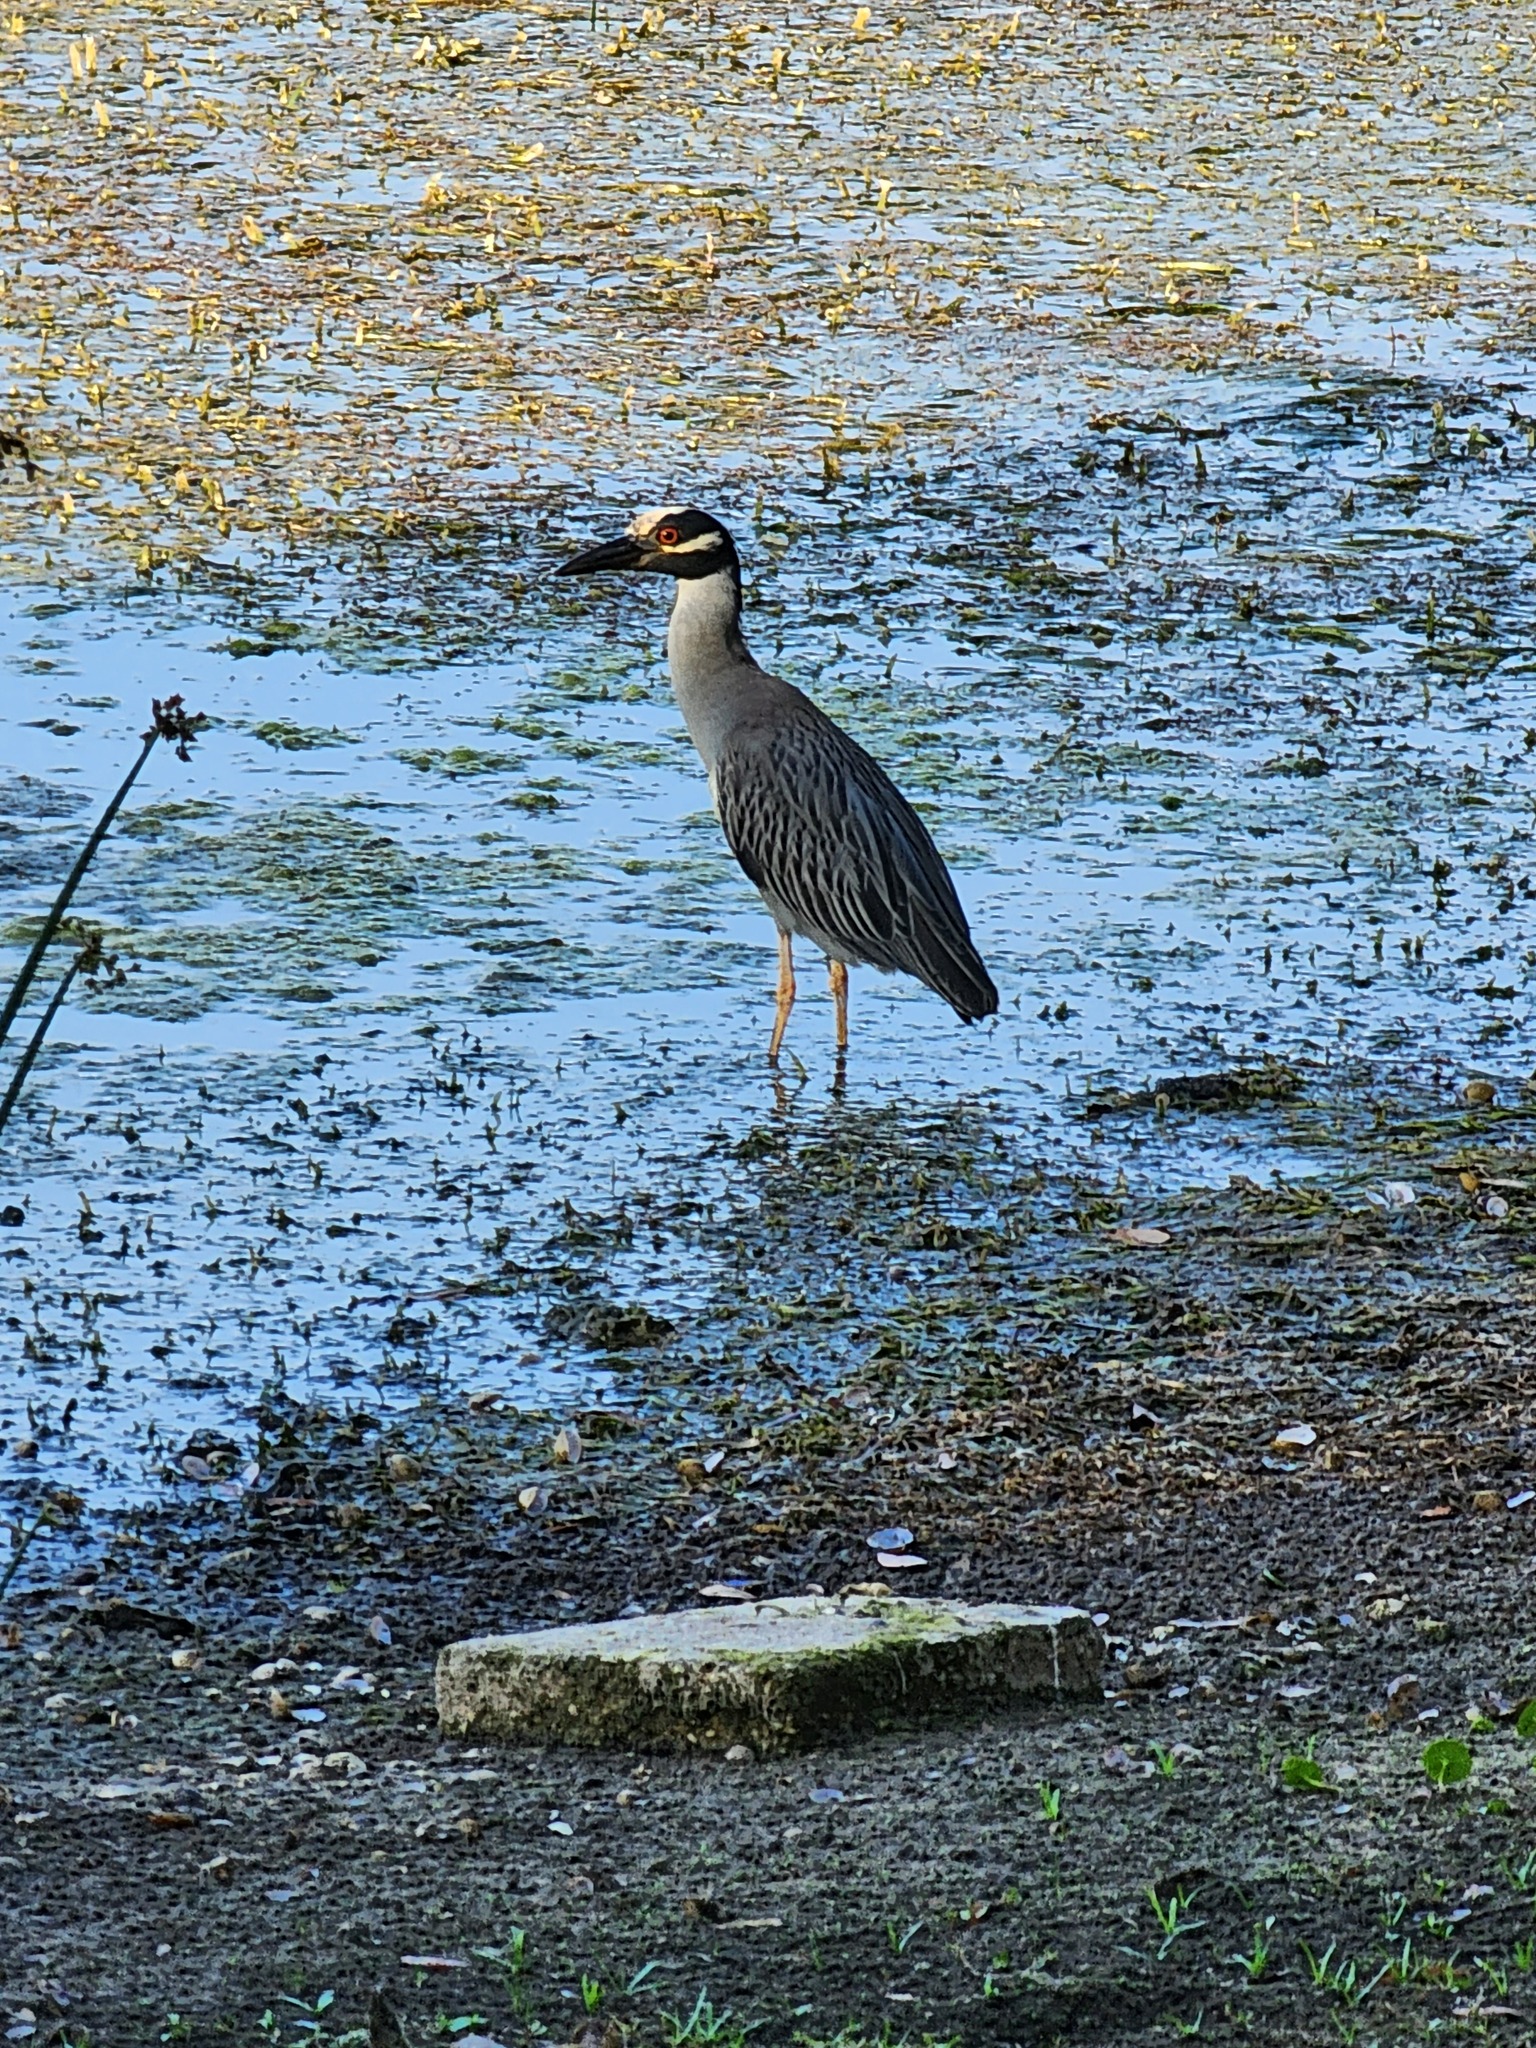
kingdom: Animalia
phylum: Chordata
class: Aves
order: Pelecaniformes
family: Ardeidae
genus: Nyctanassa
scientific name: Nyctanassa violacea
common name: Yellow-crowned night heron
